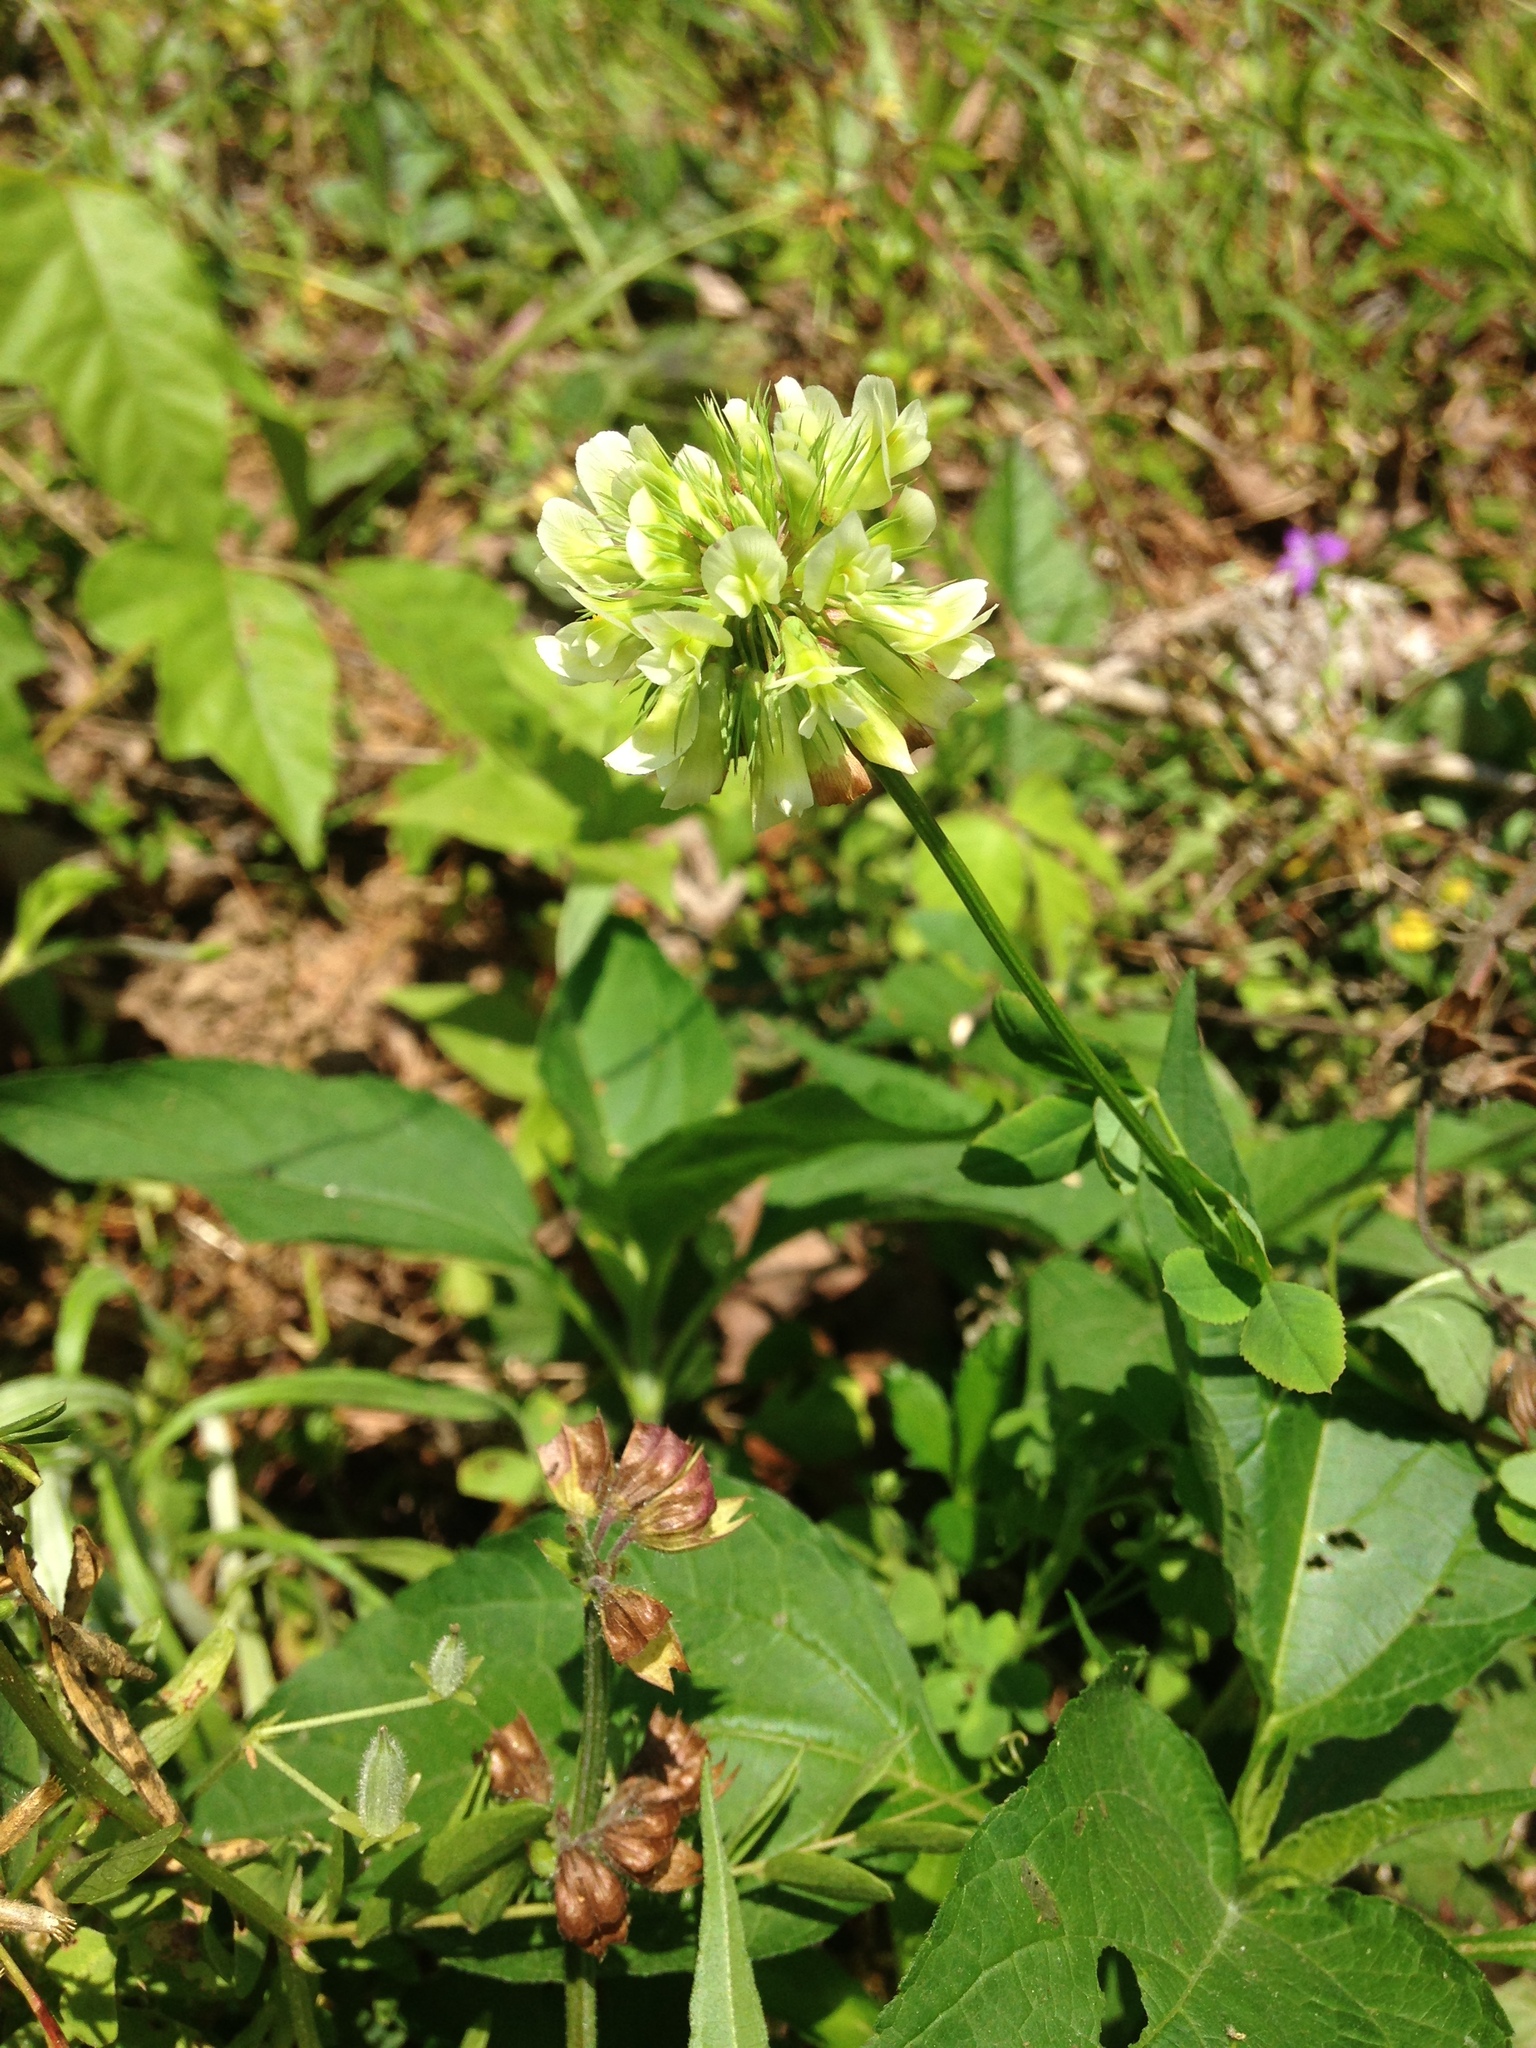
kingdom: Plantae
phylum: Tracheophyta
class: Magnoliopsida
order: Fabales
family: Fabaceae
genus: Trifolium
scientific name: Trifolium reflexum
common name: Buffalo clover
